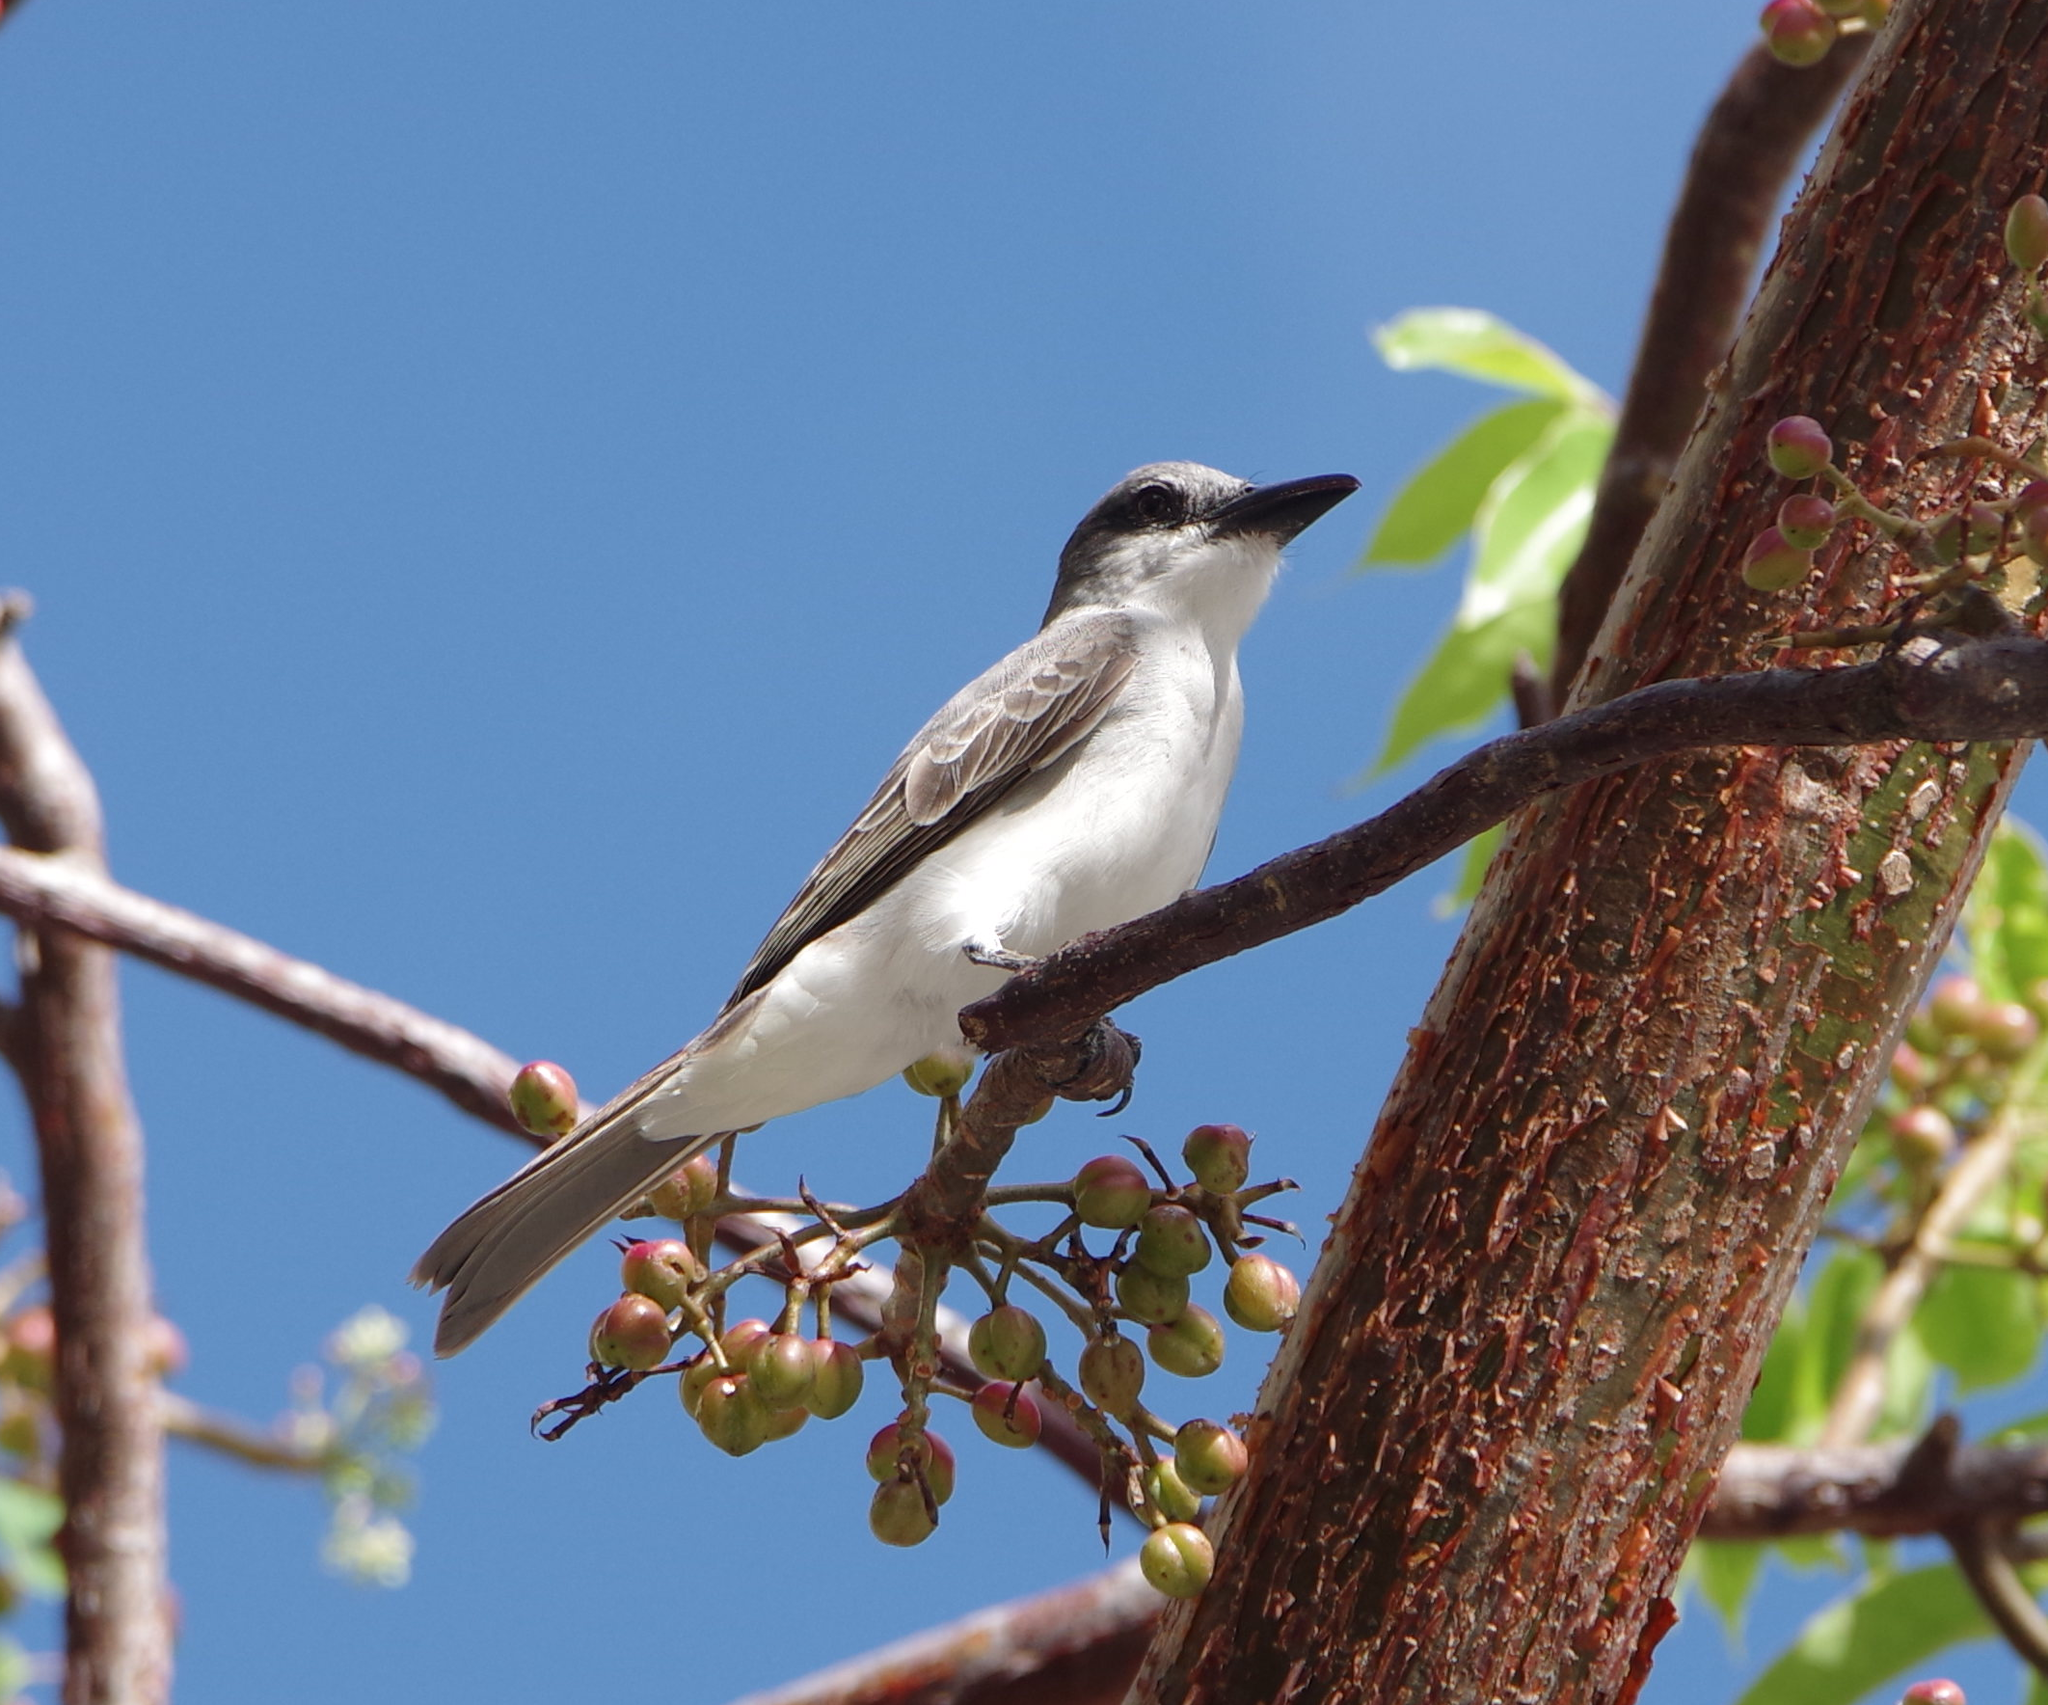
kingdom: Animalia
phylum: Chordata
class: Aves
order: Passeriformes
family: Tyrannidae
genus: Tyrannus
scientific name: Tyrannus dominicensis
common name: Gray kingbird
